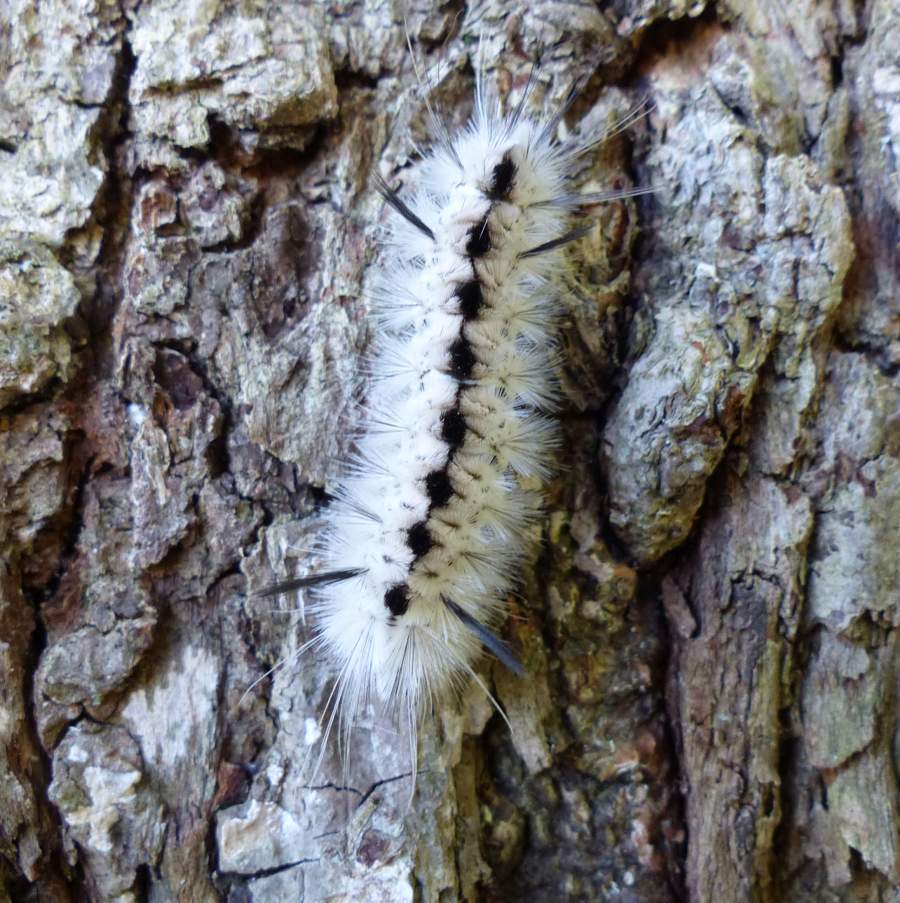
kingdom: Animalia
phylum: Arthropoda
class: Insecta
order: Lepidoptera
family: Erebidae
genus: Lophocampa
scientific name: Lophocampa caryae
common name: Hickory tussock moth
